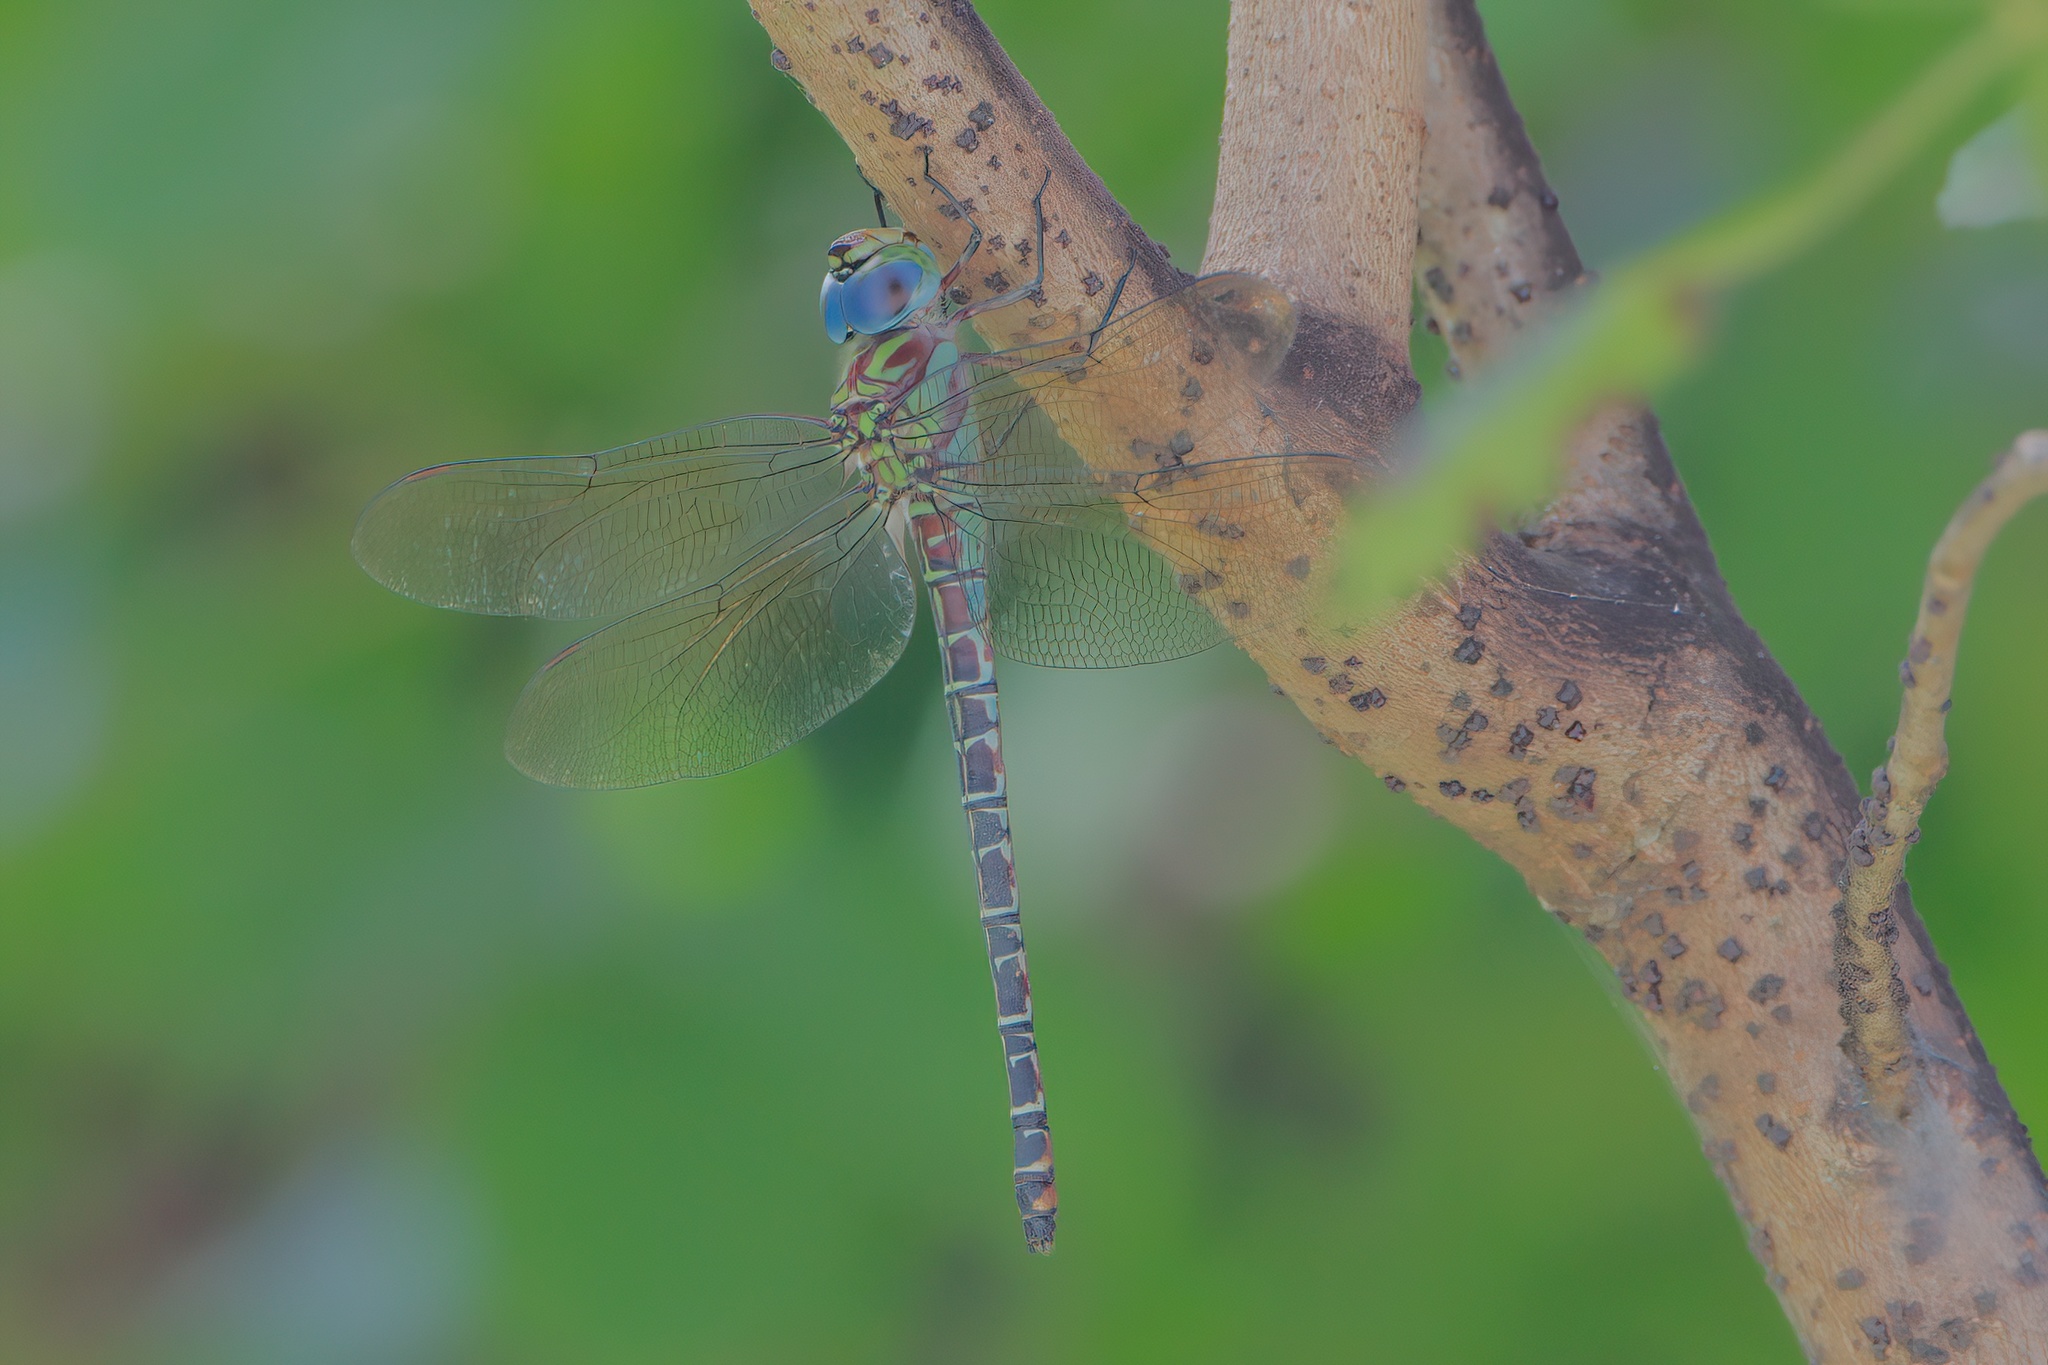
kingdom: Animalia
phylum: Arthropoda
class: Insecta
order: Odonata
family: Aeshnidae
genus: Coryphaeschna
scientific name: Coryphaeschna ingens
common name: Regal darner
